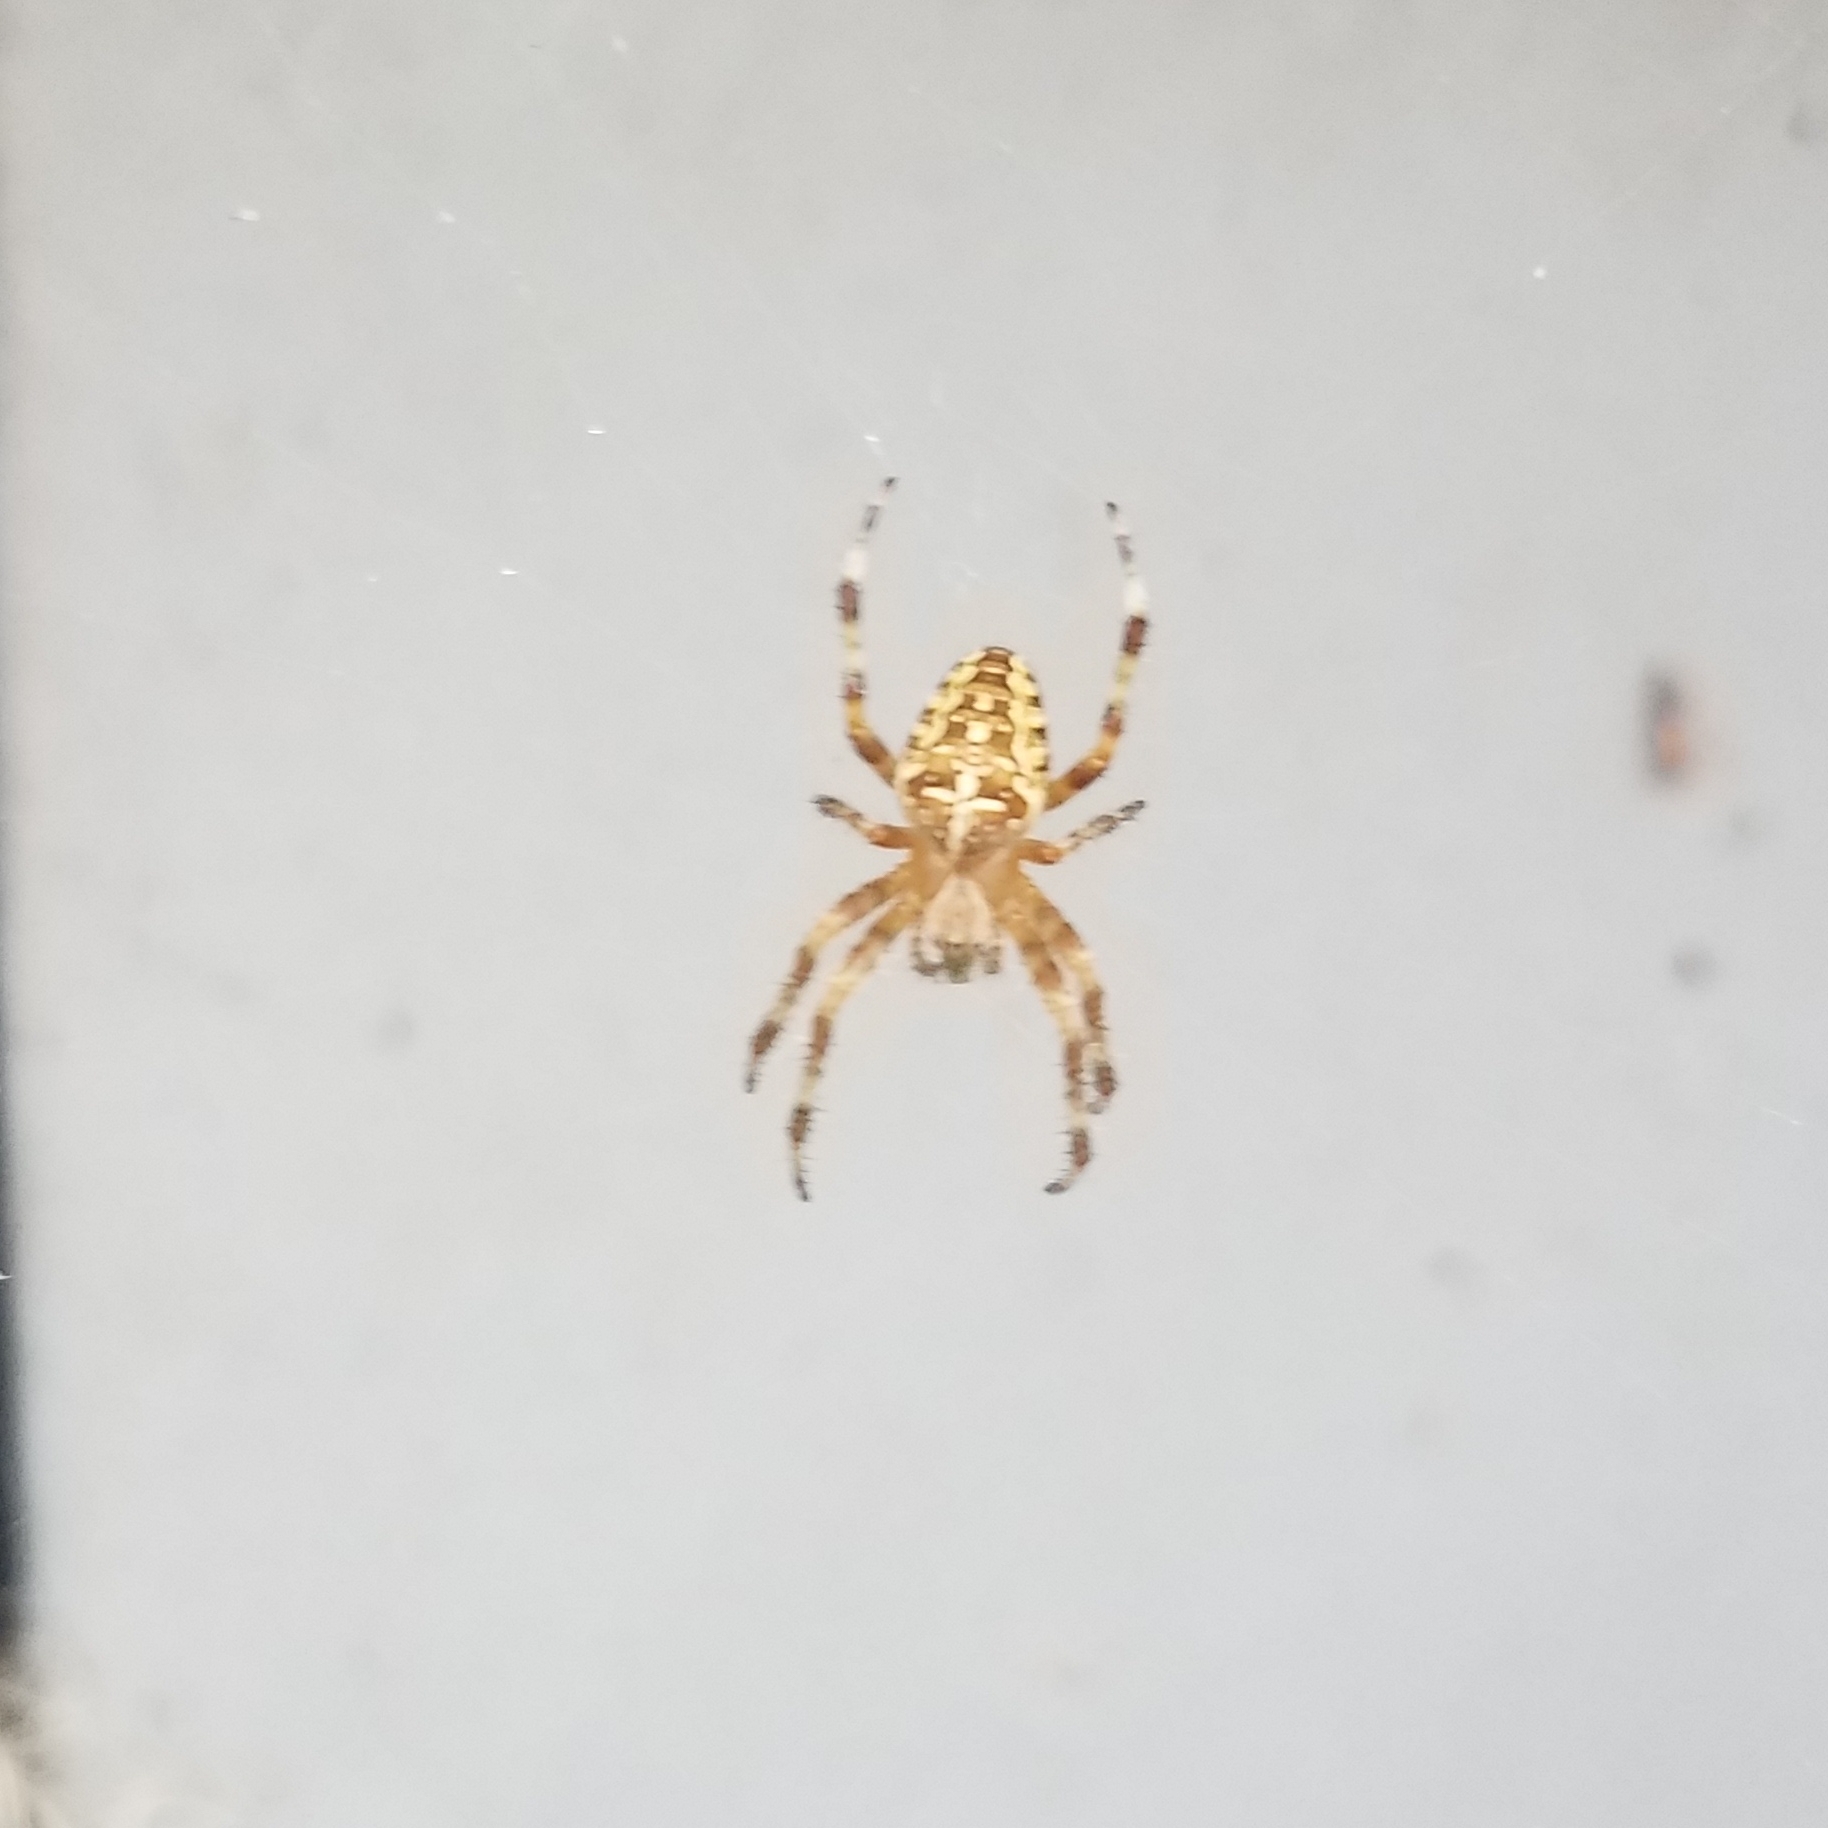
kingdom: Animalia
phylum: Arthropoda
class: Arachnida
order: Araneae
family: Araneidae
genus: Araneus
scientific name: Araneus diadematus
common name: Cross orbweaver
